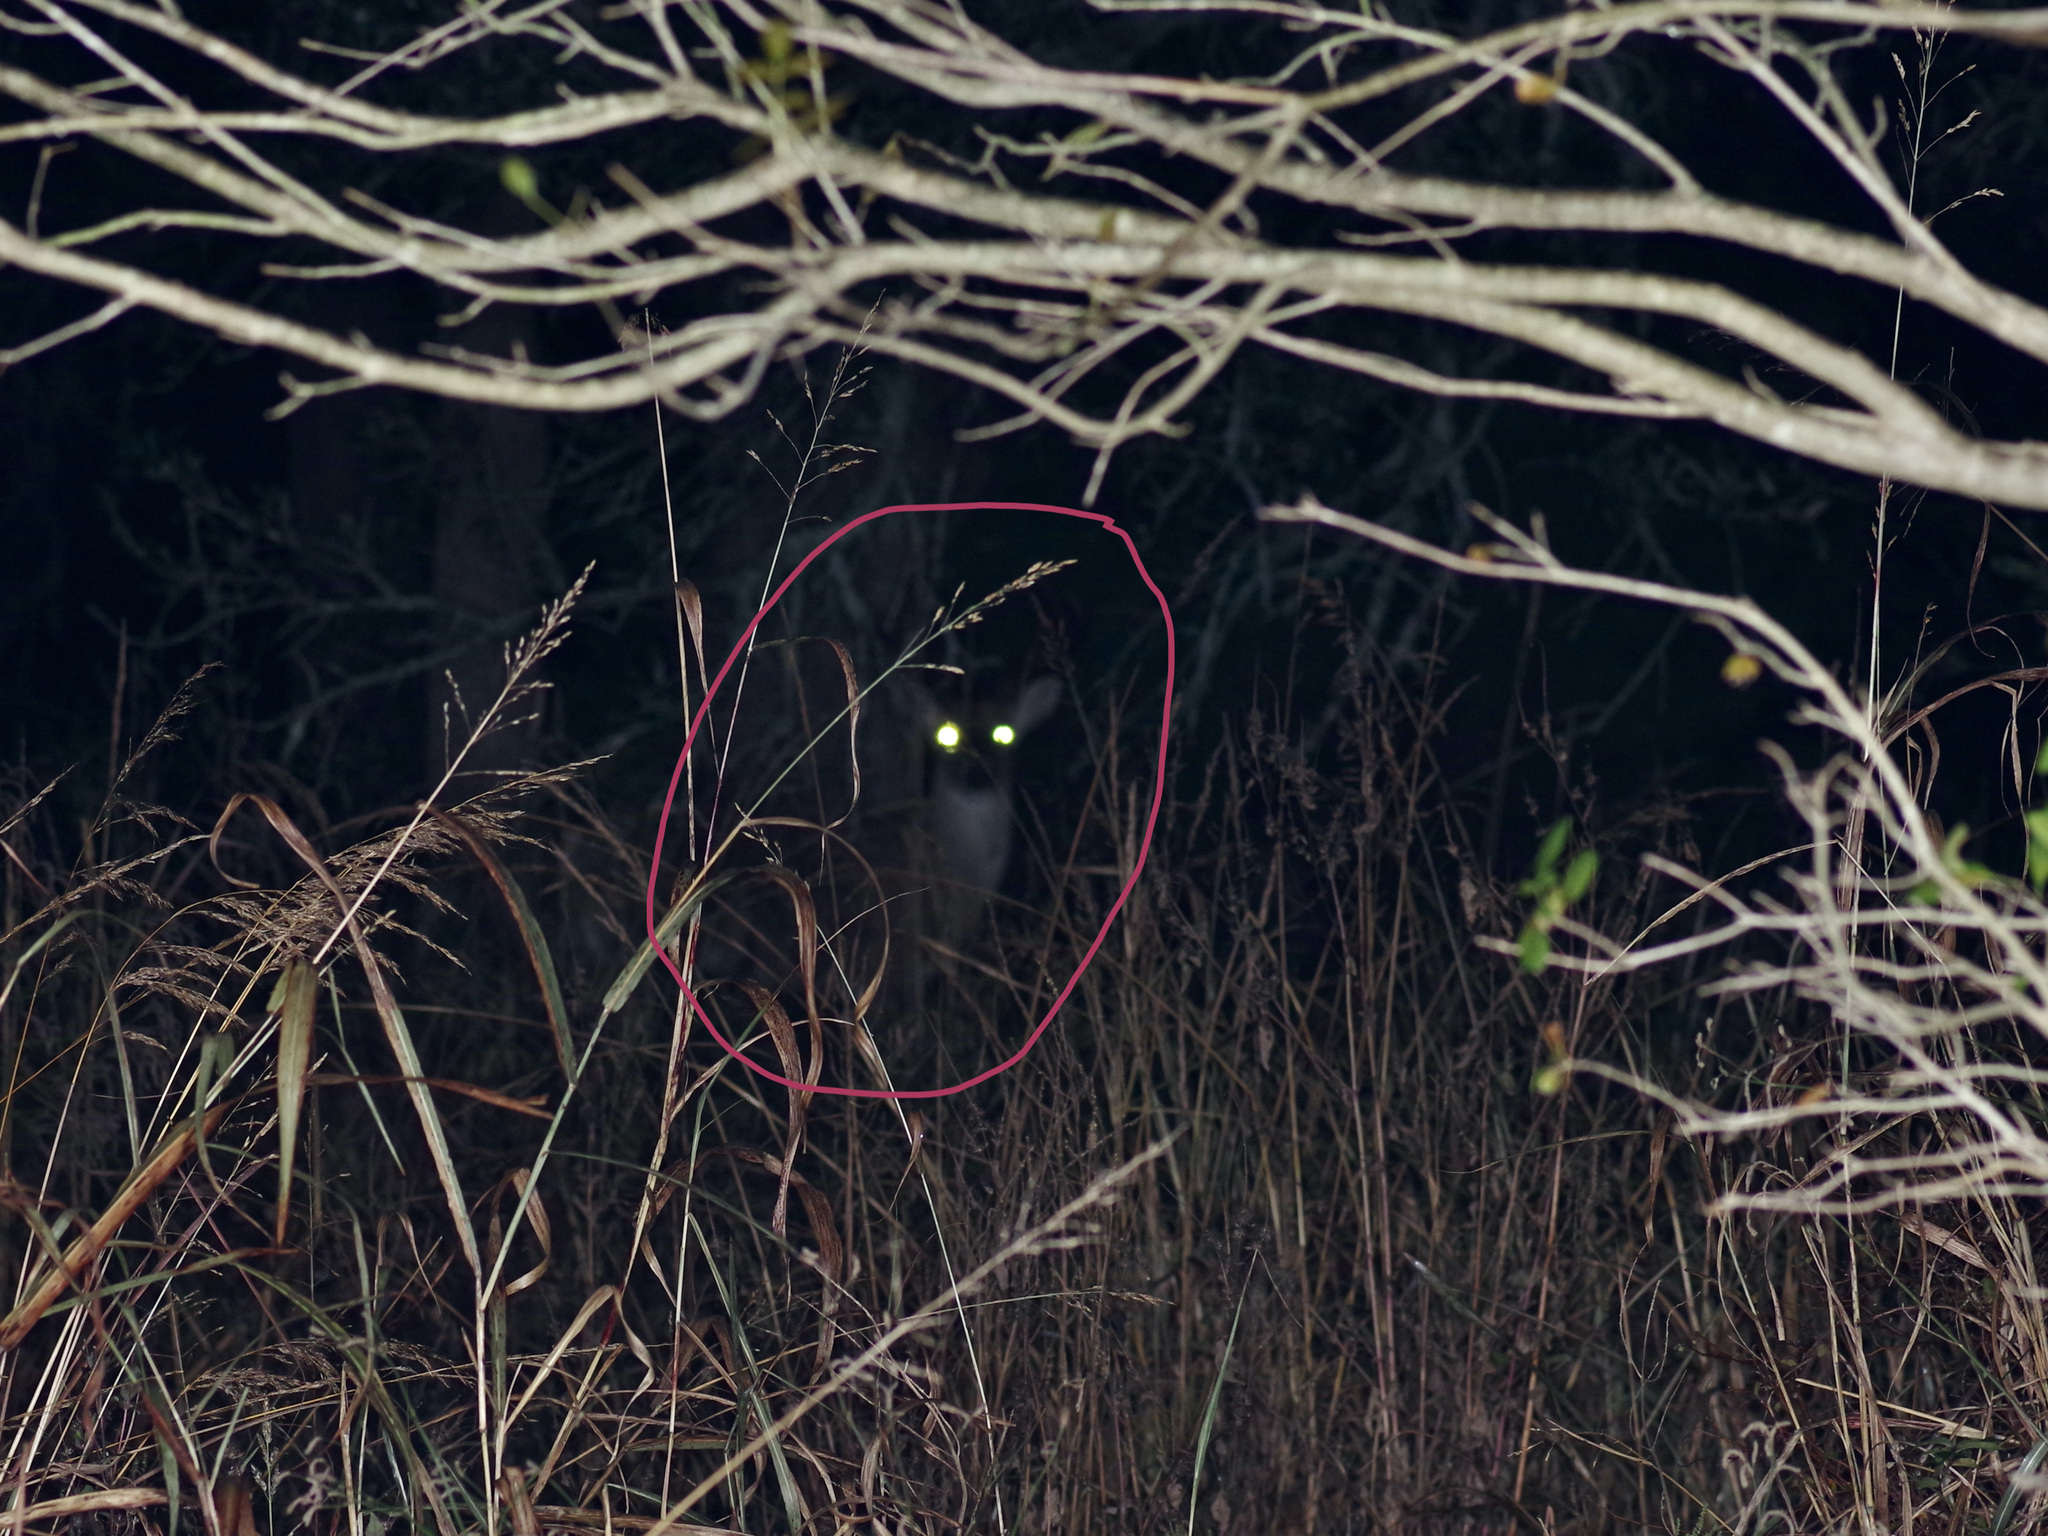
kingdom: Animalia
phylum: Chordata
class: Mammalia
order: Artiodactyla
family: Cervidae
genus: Odocoileus
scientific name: Odocoileus virginianus
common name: White-tailed deer
